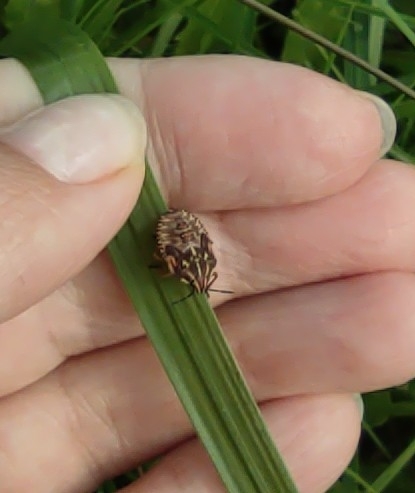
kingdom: Animalia
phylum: Arthropoda
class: Insecta
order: Hemiptera
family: Pentatomidae
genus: Carpocoris
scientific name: Carpocoris purpureipennis
